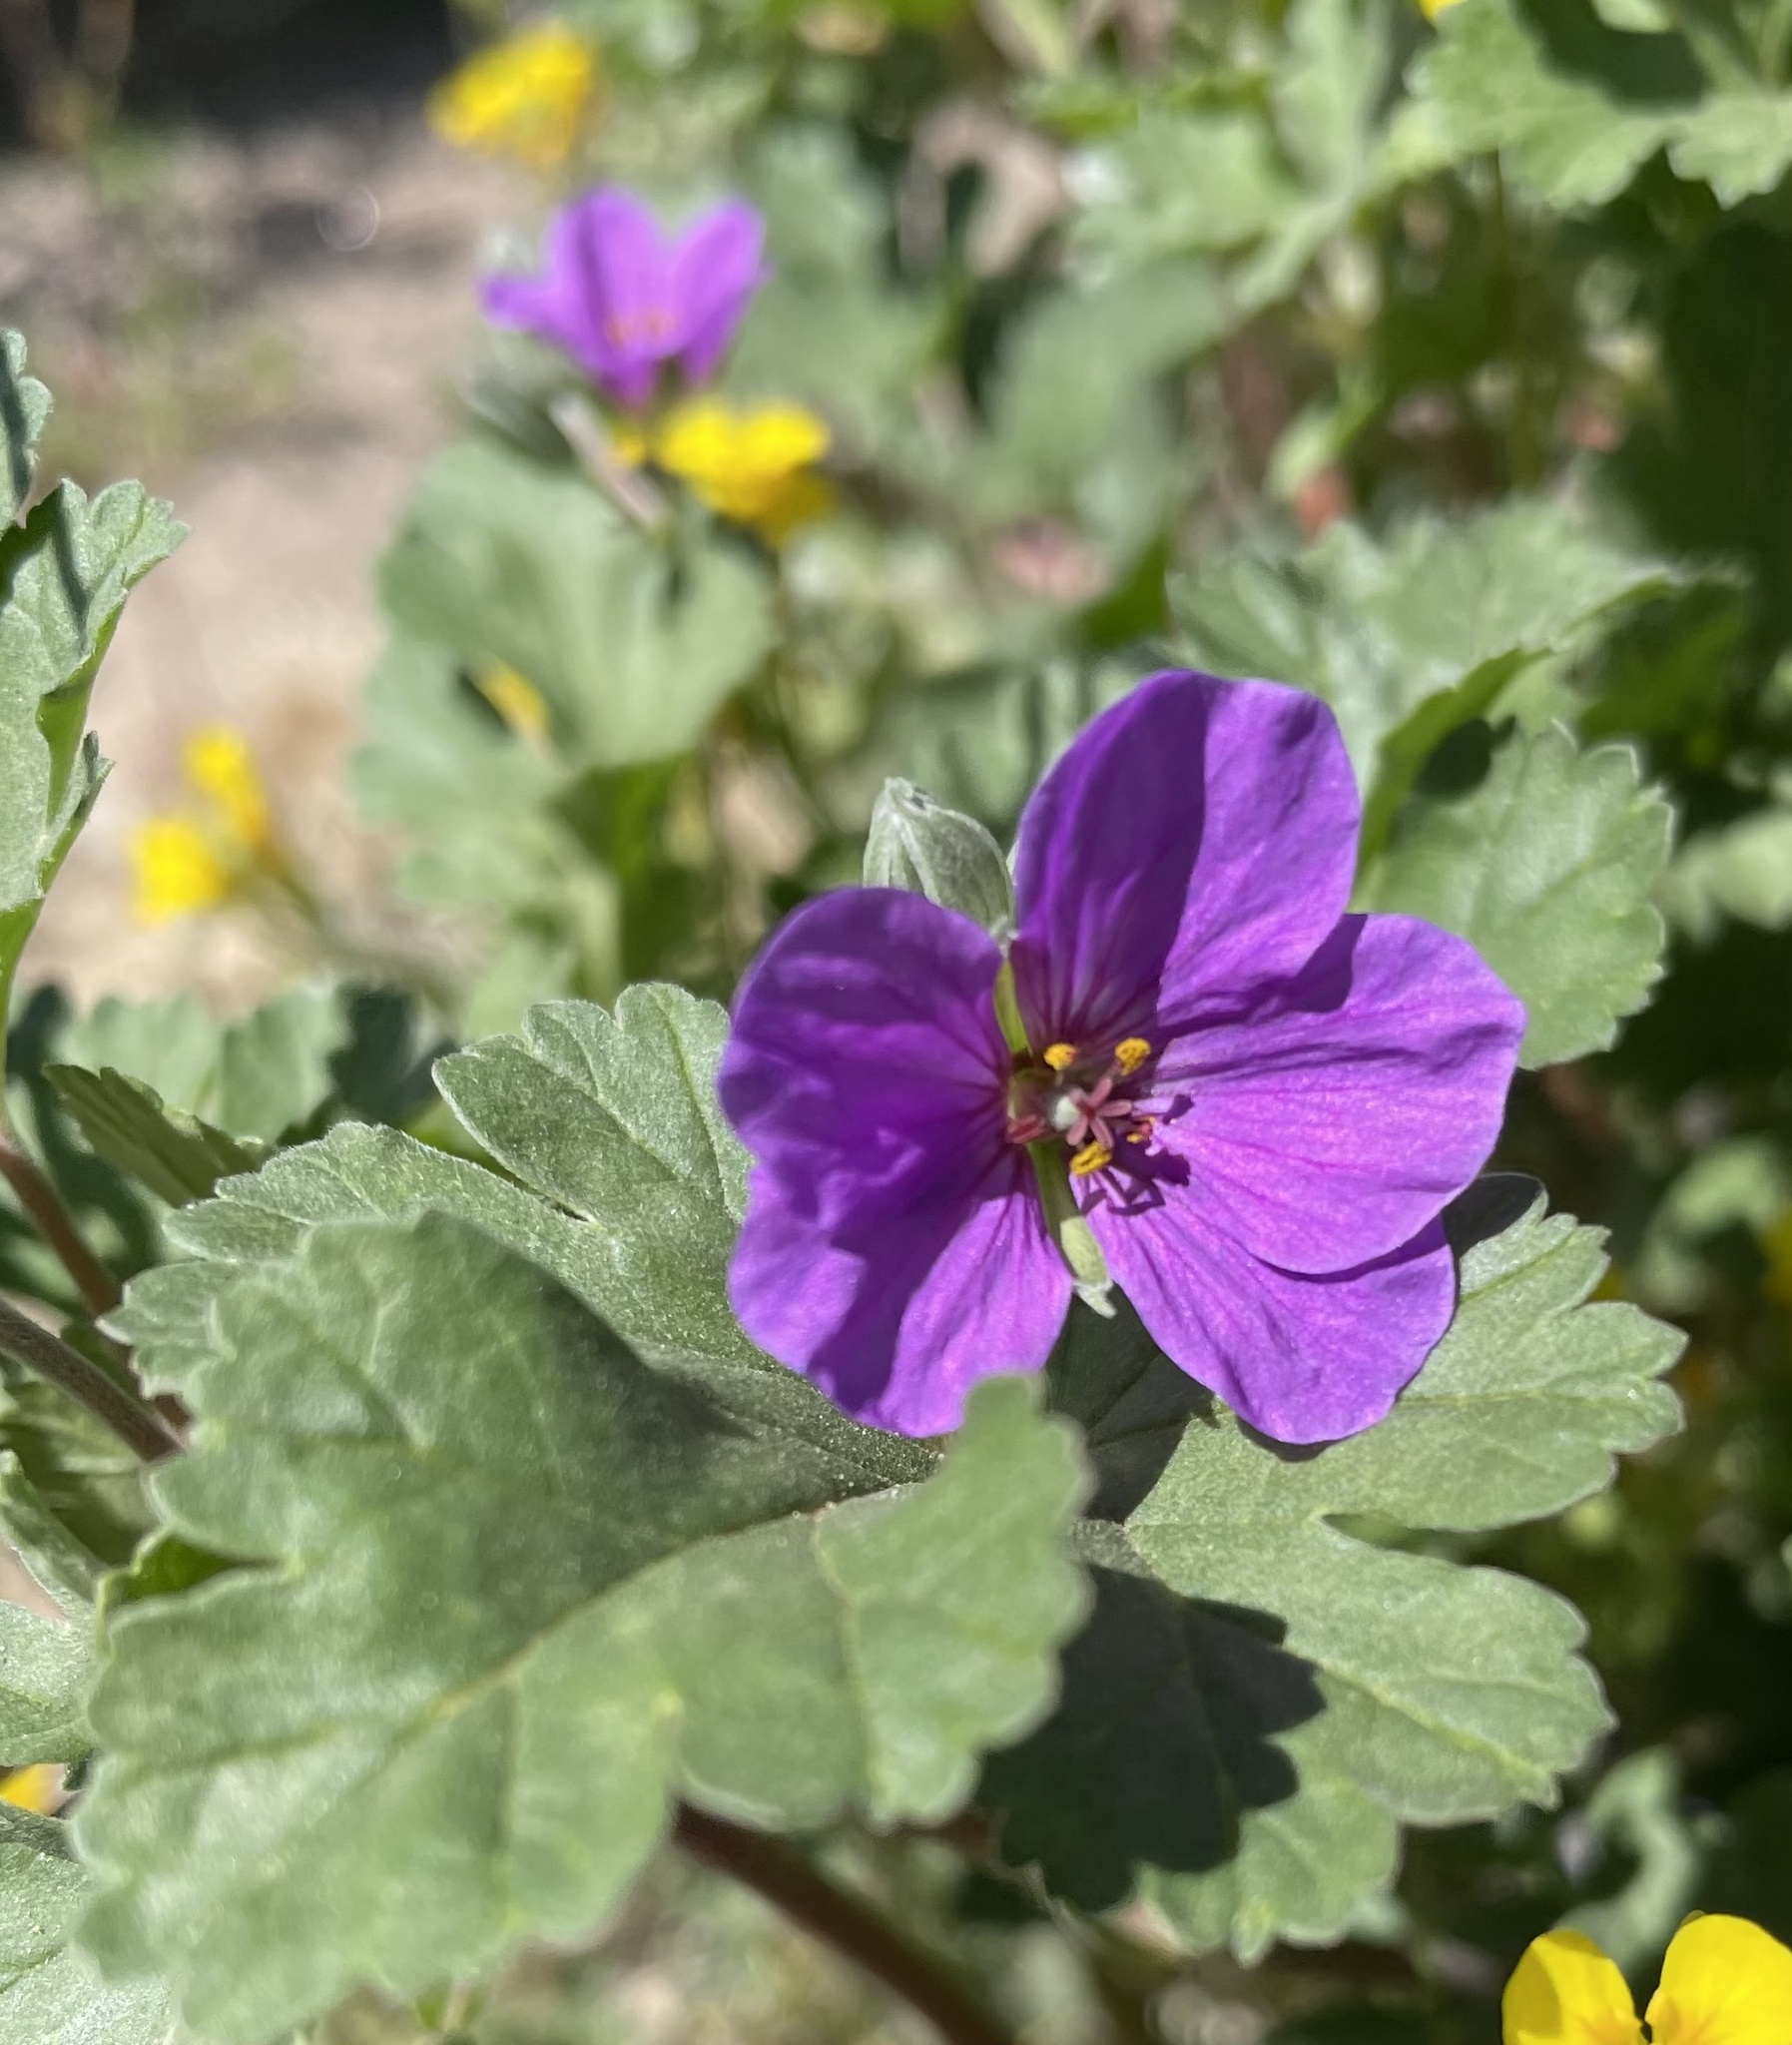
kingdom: Plantae
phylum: Tracheophyta
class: Magnoliopsida
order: Geraniales
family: Geraniaceae
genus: Erodium
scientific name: Erodium texanum
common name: Texas stork's-bill
